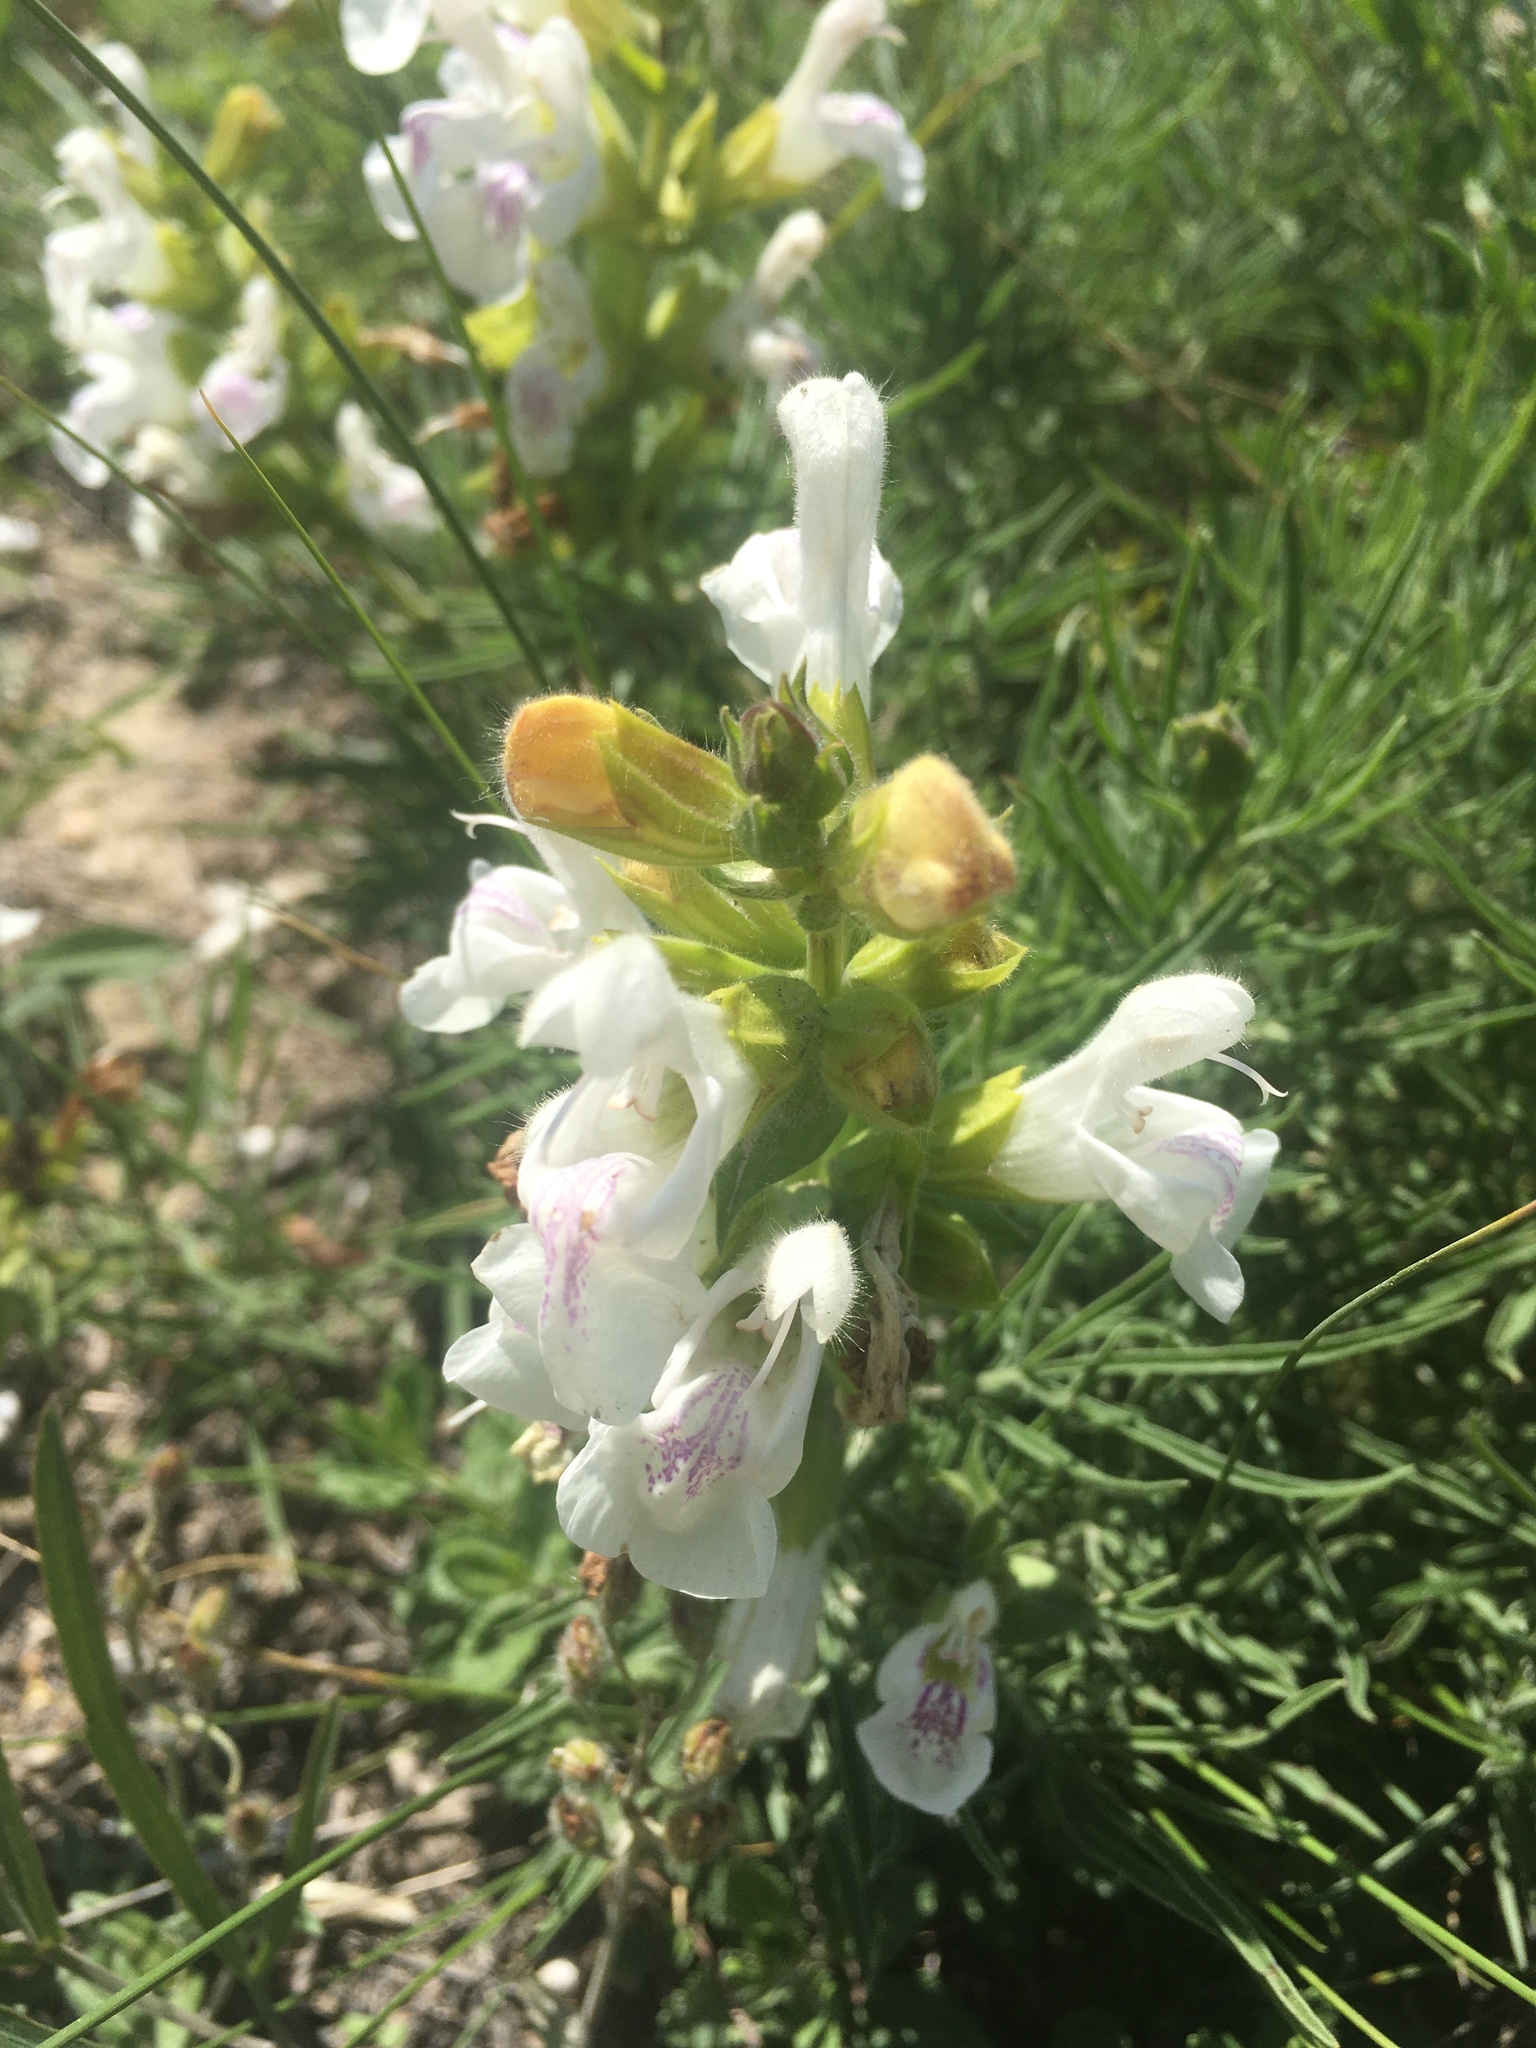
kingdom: Plantae
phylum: Tracheophyta
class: Magnoliopsida
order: Lamiales
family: Lamiaceae
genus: Salvia
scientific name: Salvia scabiosifolia
